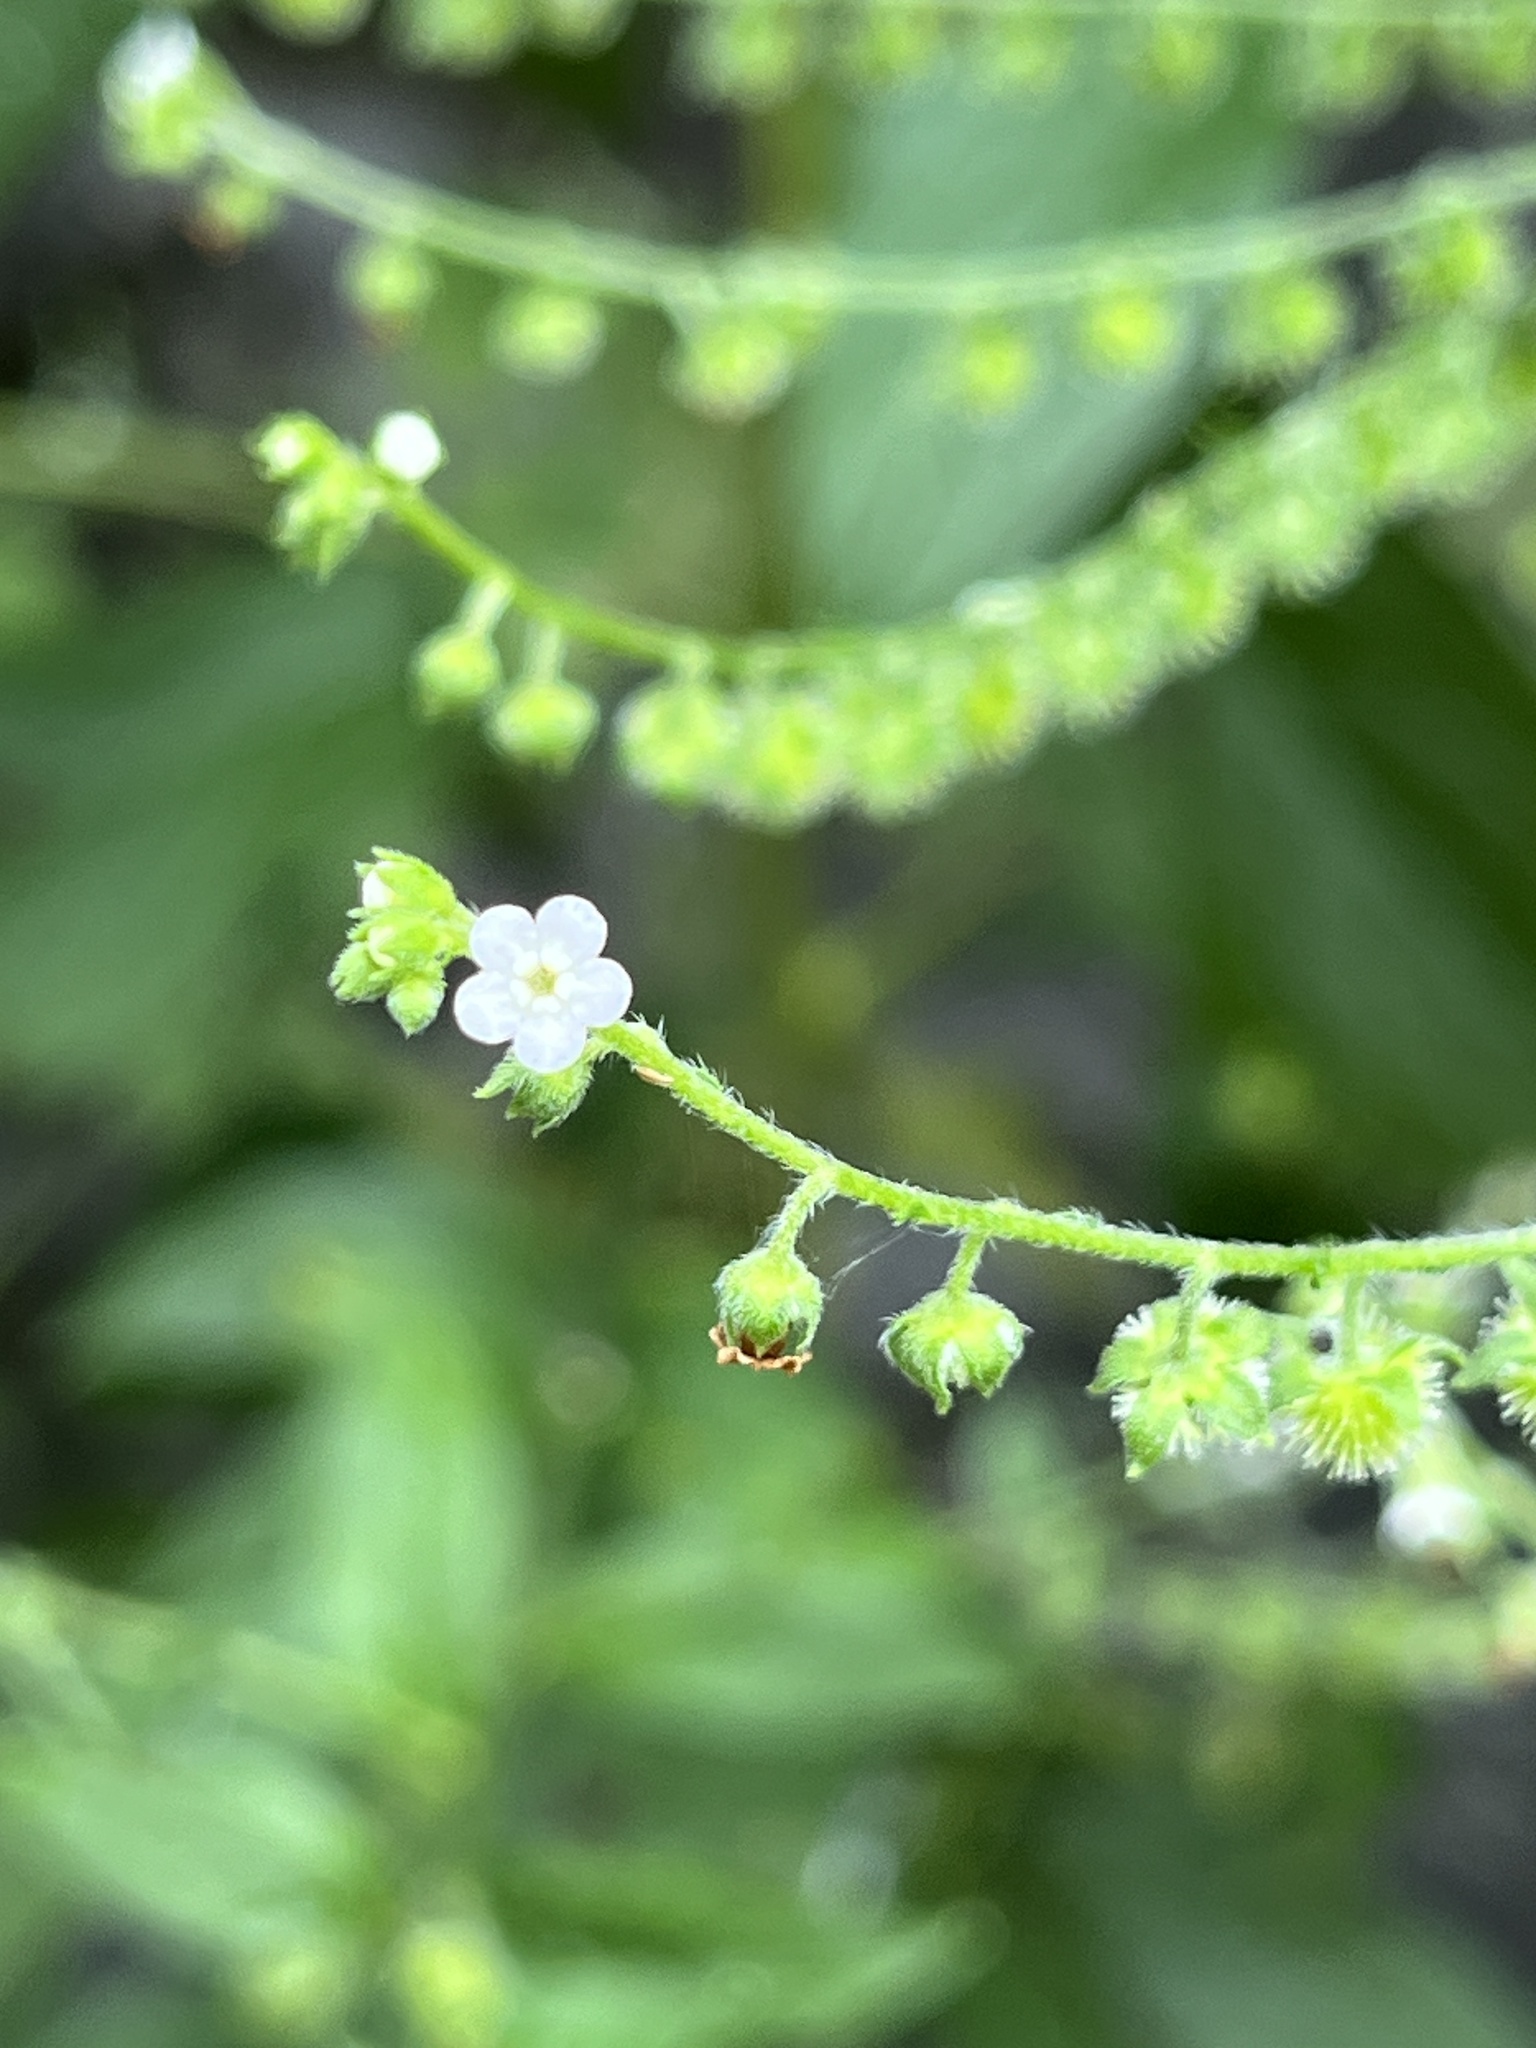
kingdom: Plantae
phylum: Tracheophyta
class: Magnoliopsida
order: Boraginales
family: Boraginaceae
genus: Hackelia
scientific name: Hackelia virginiana
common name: Beggar's-lice
